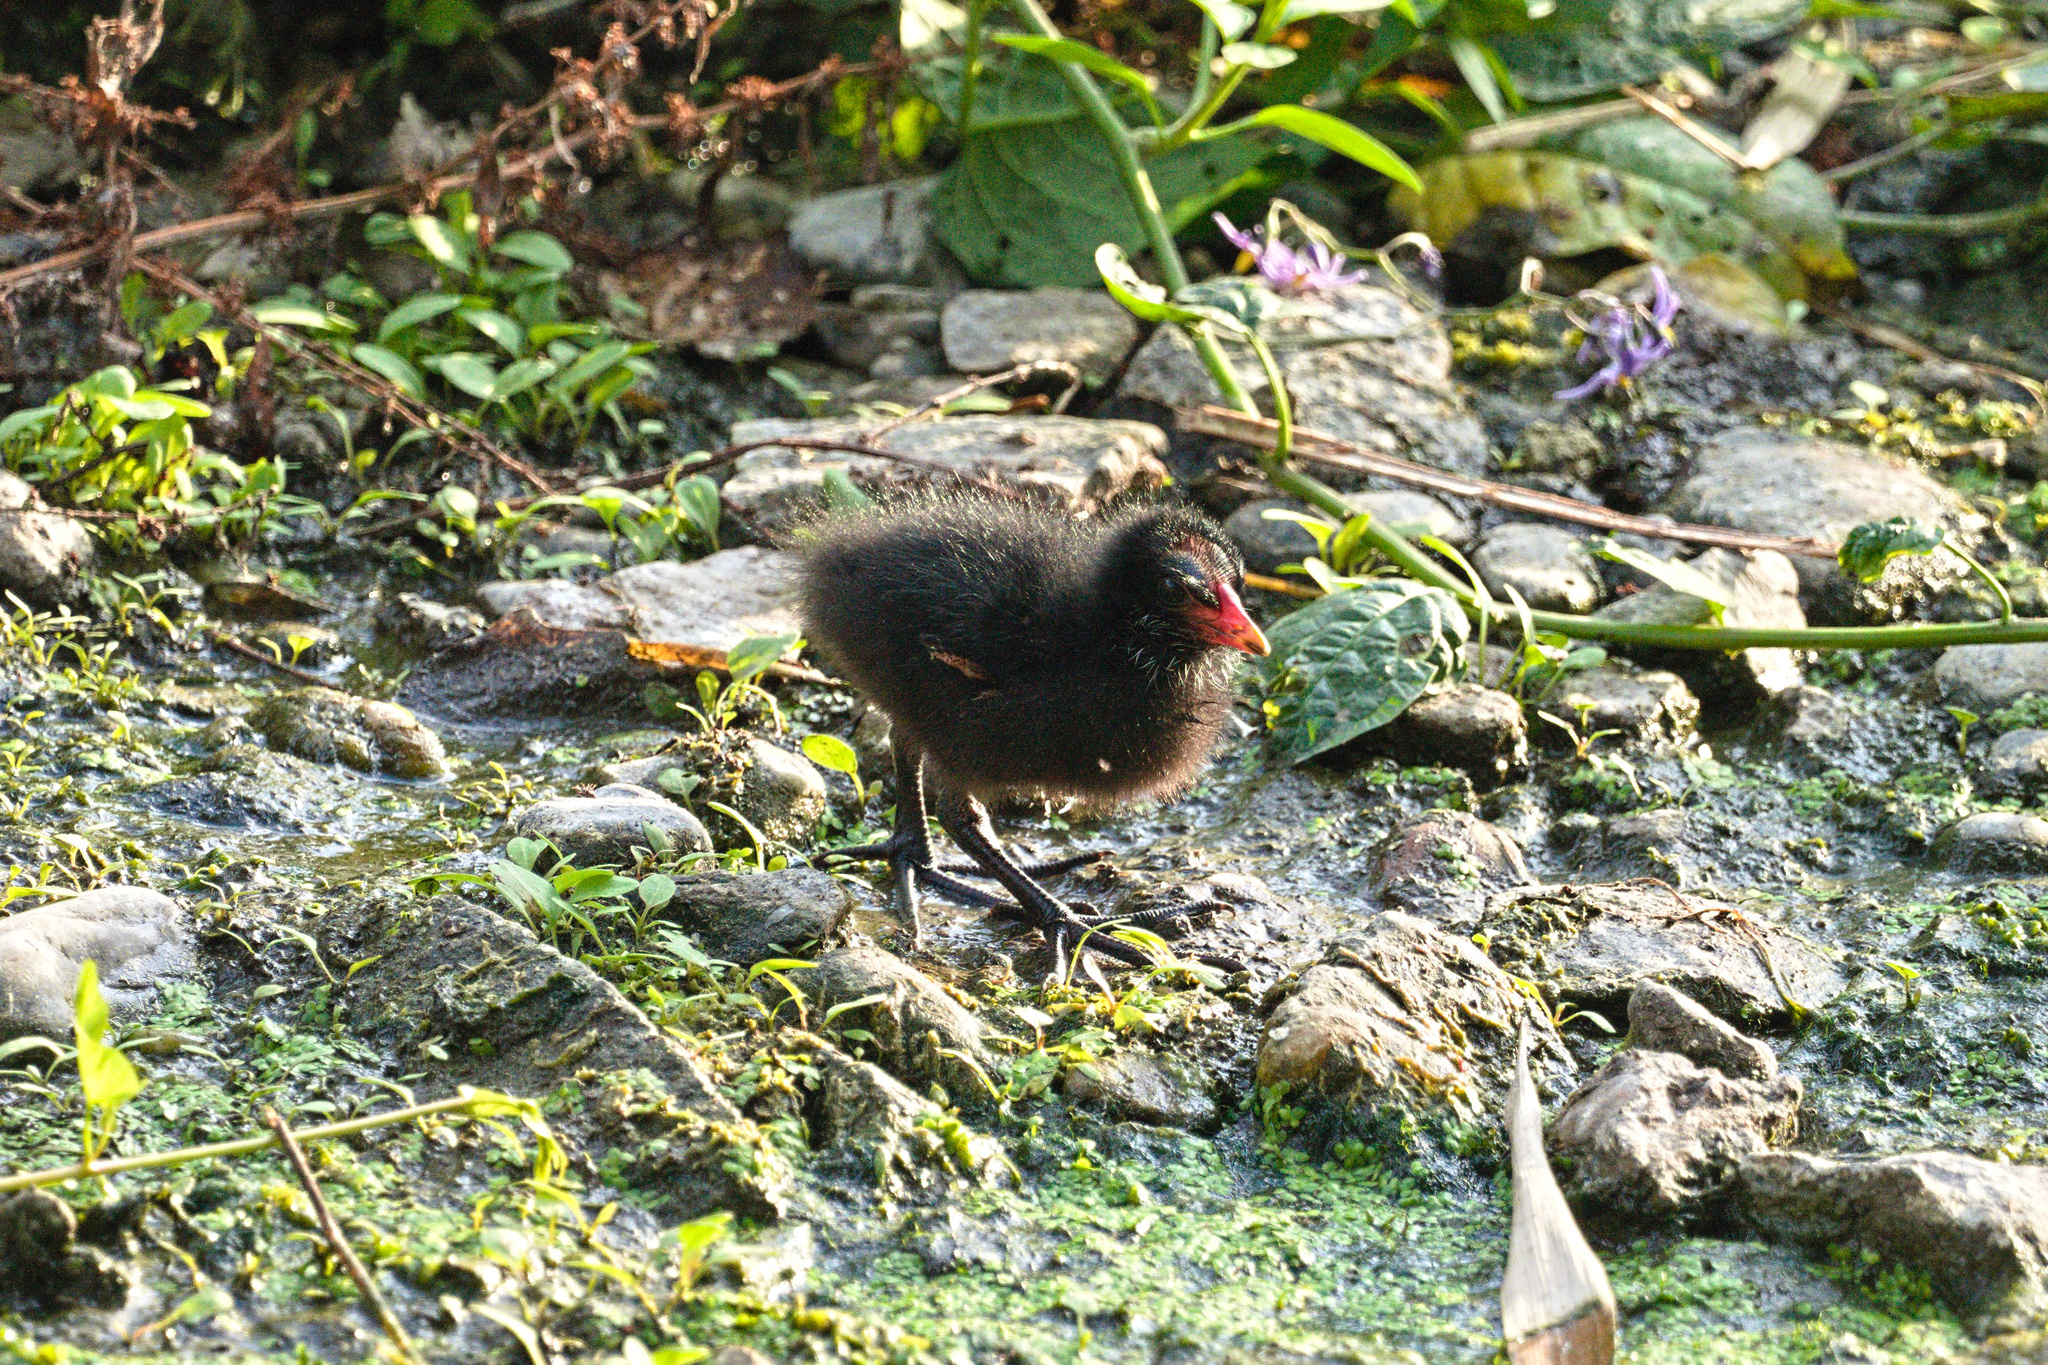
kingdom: Animalia
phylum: Chordata
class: Aves
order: Gruiformes
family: Rallidae
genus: Gallinula
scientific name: Gallinula chloropus
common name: Common moorhen
